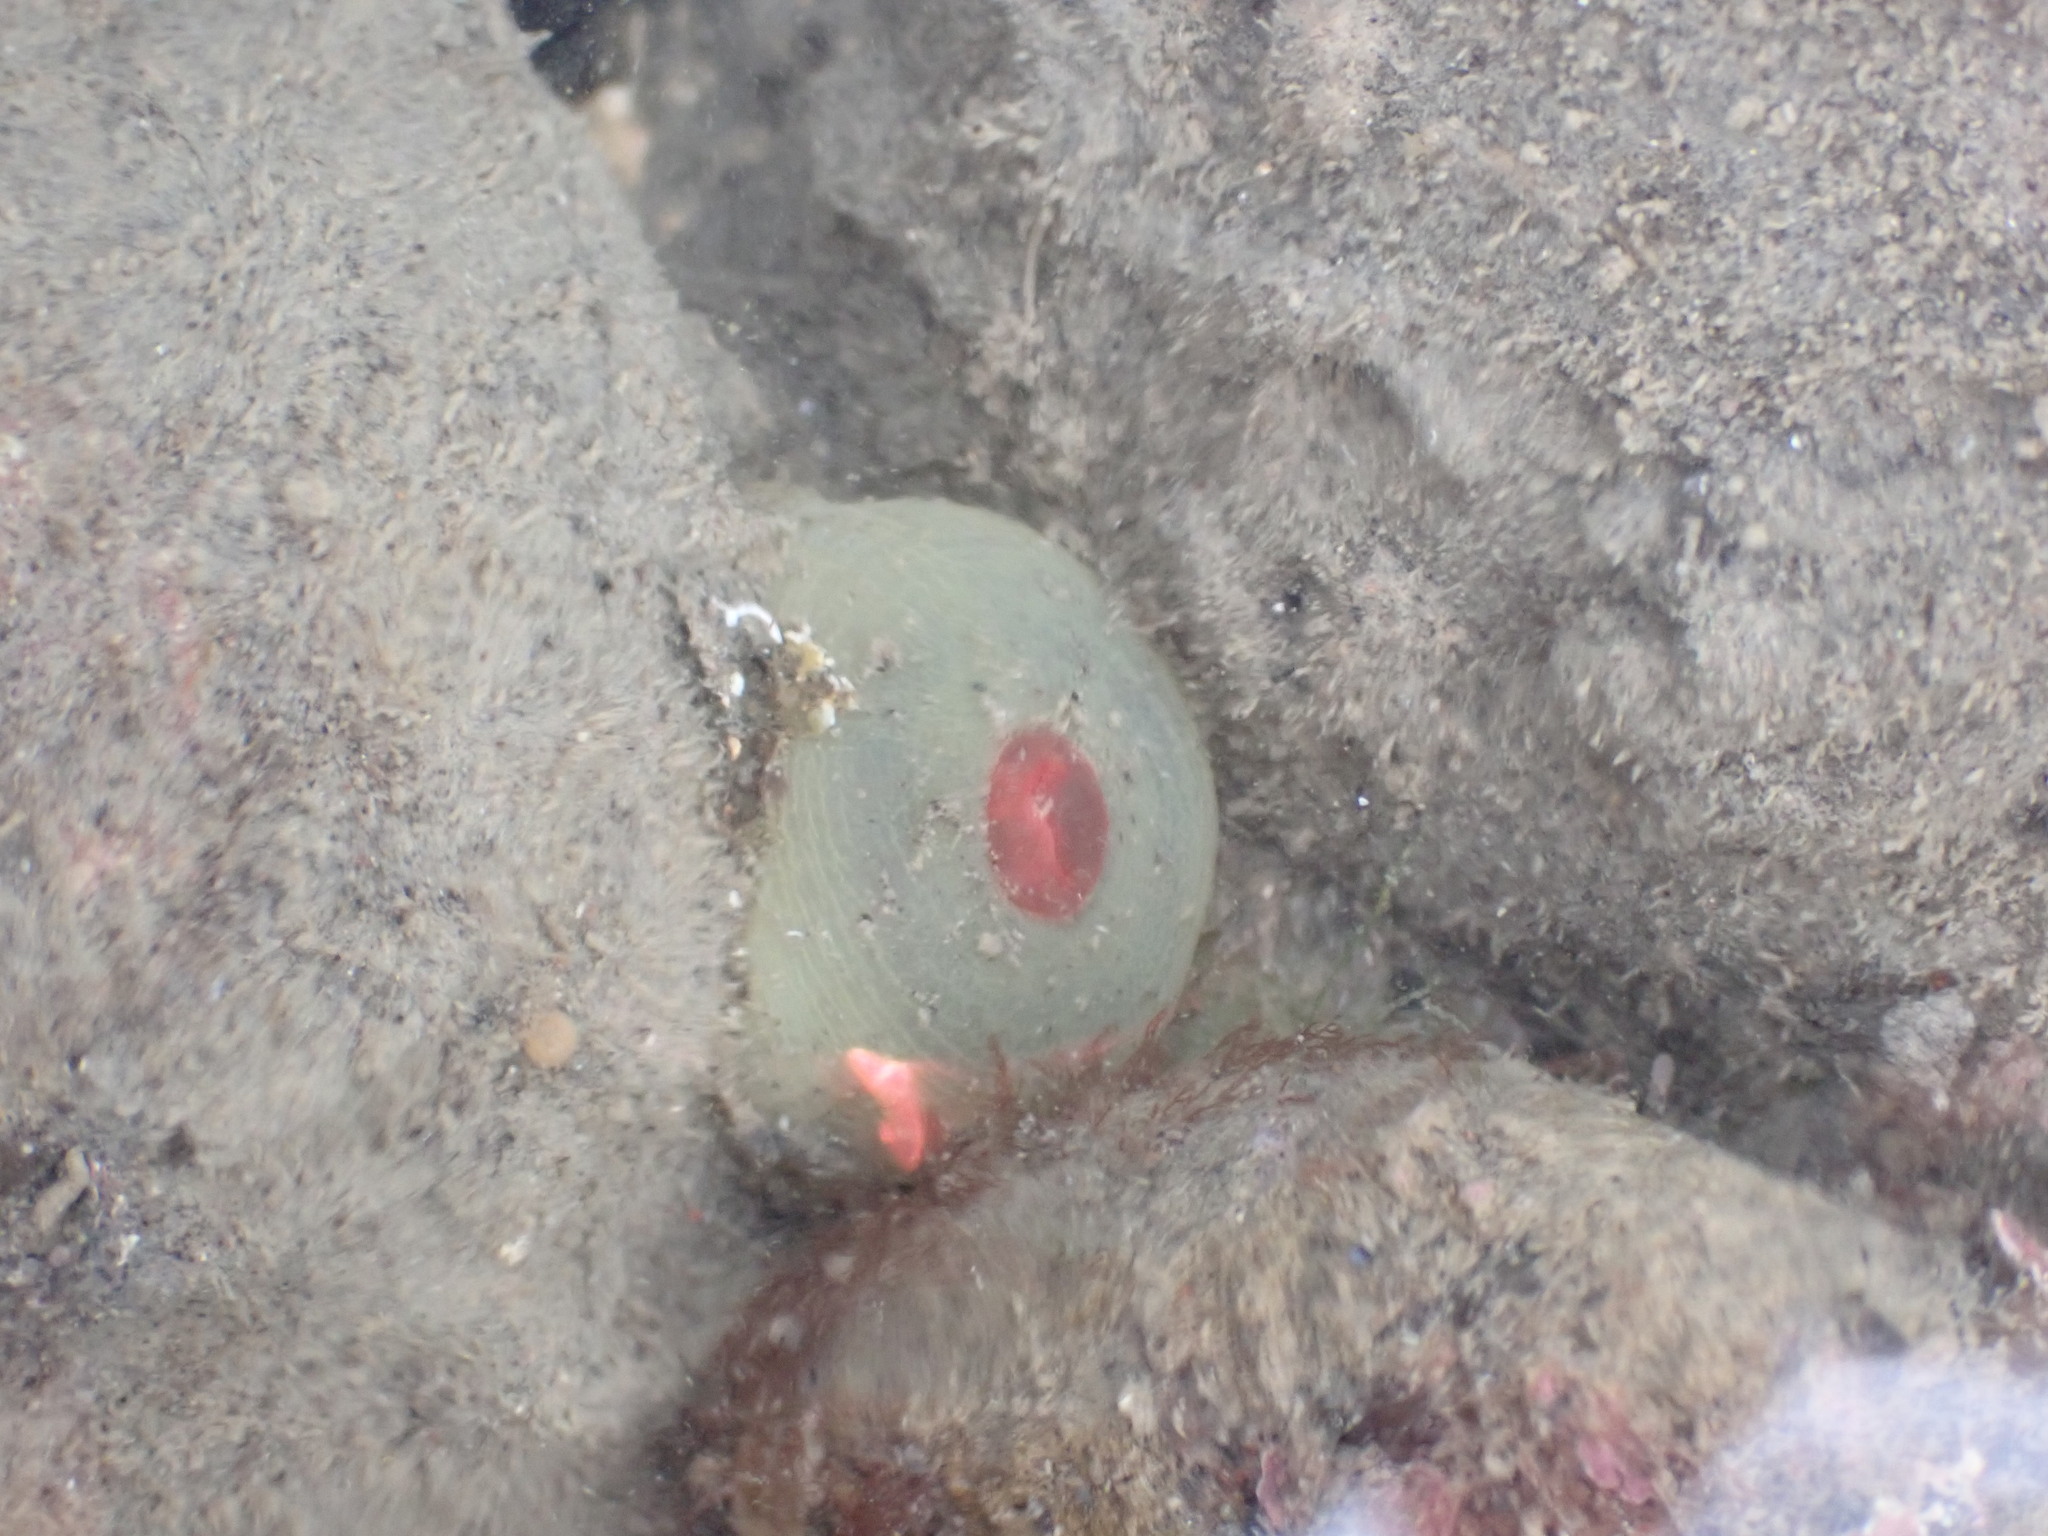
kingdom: Animalia
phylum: Cnidaria
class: Anthozoa
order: Actiniaria
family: Actiniidae
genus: Isactinia
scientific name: Isactinia olivacea
